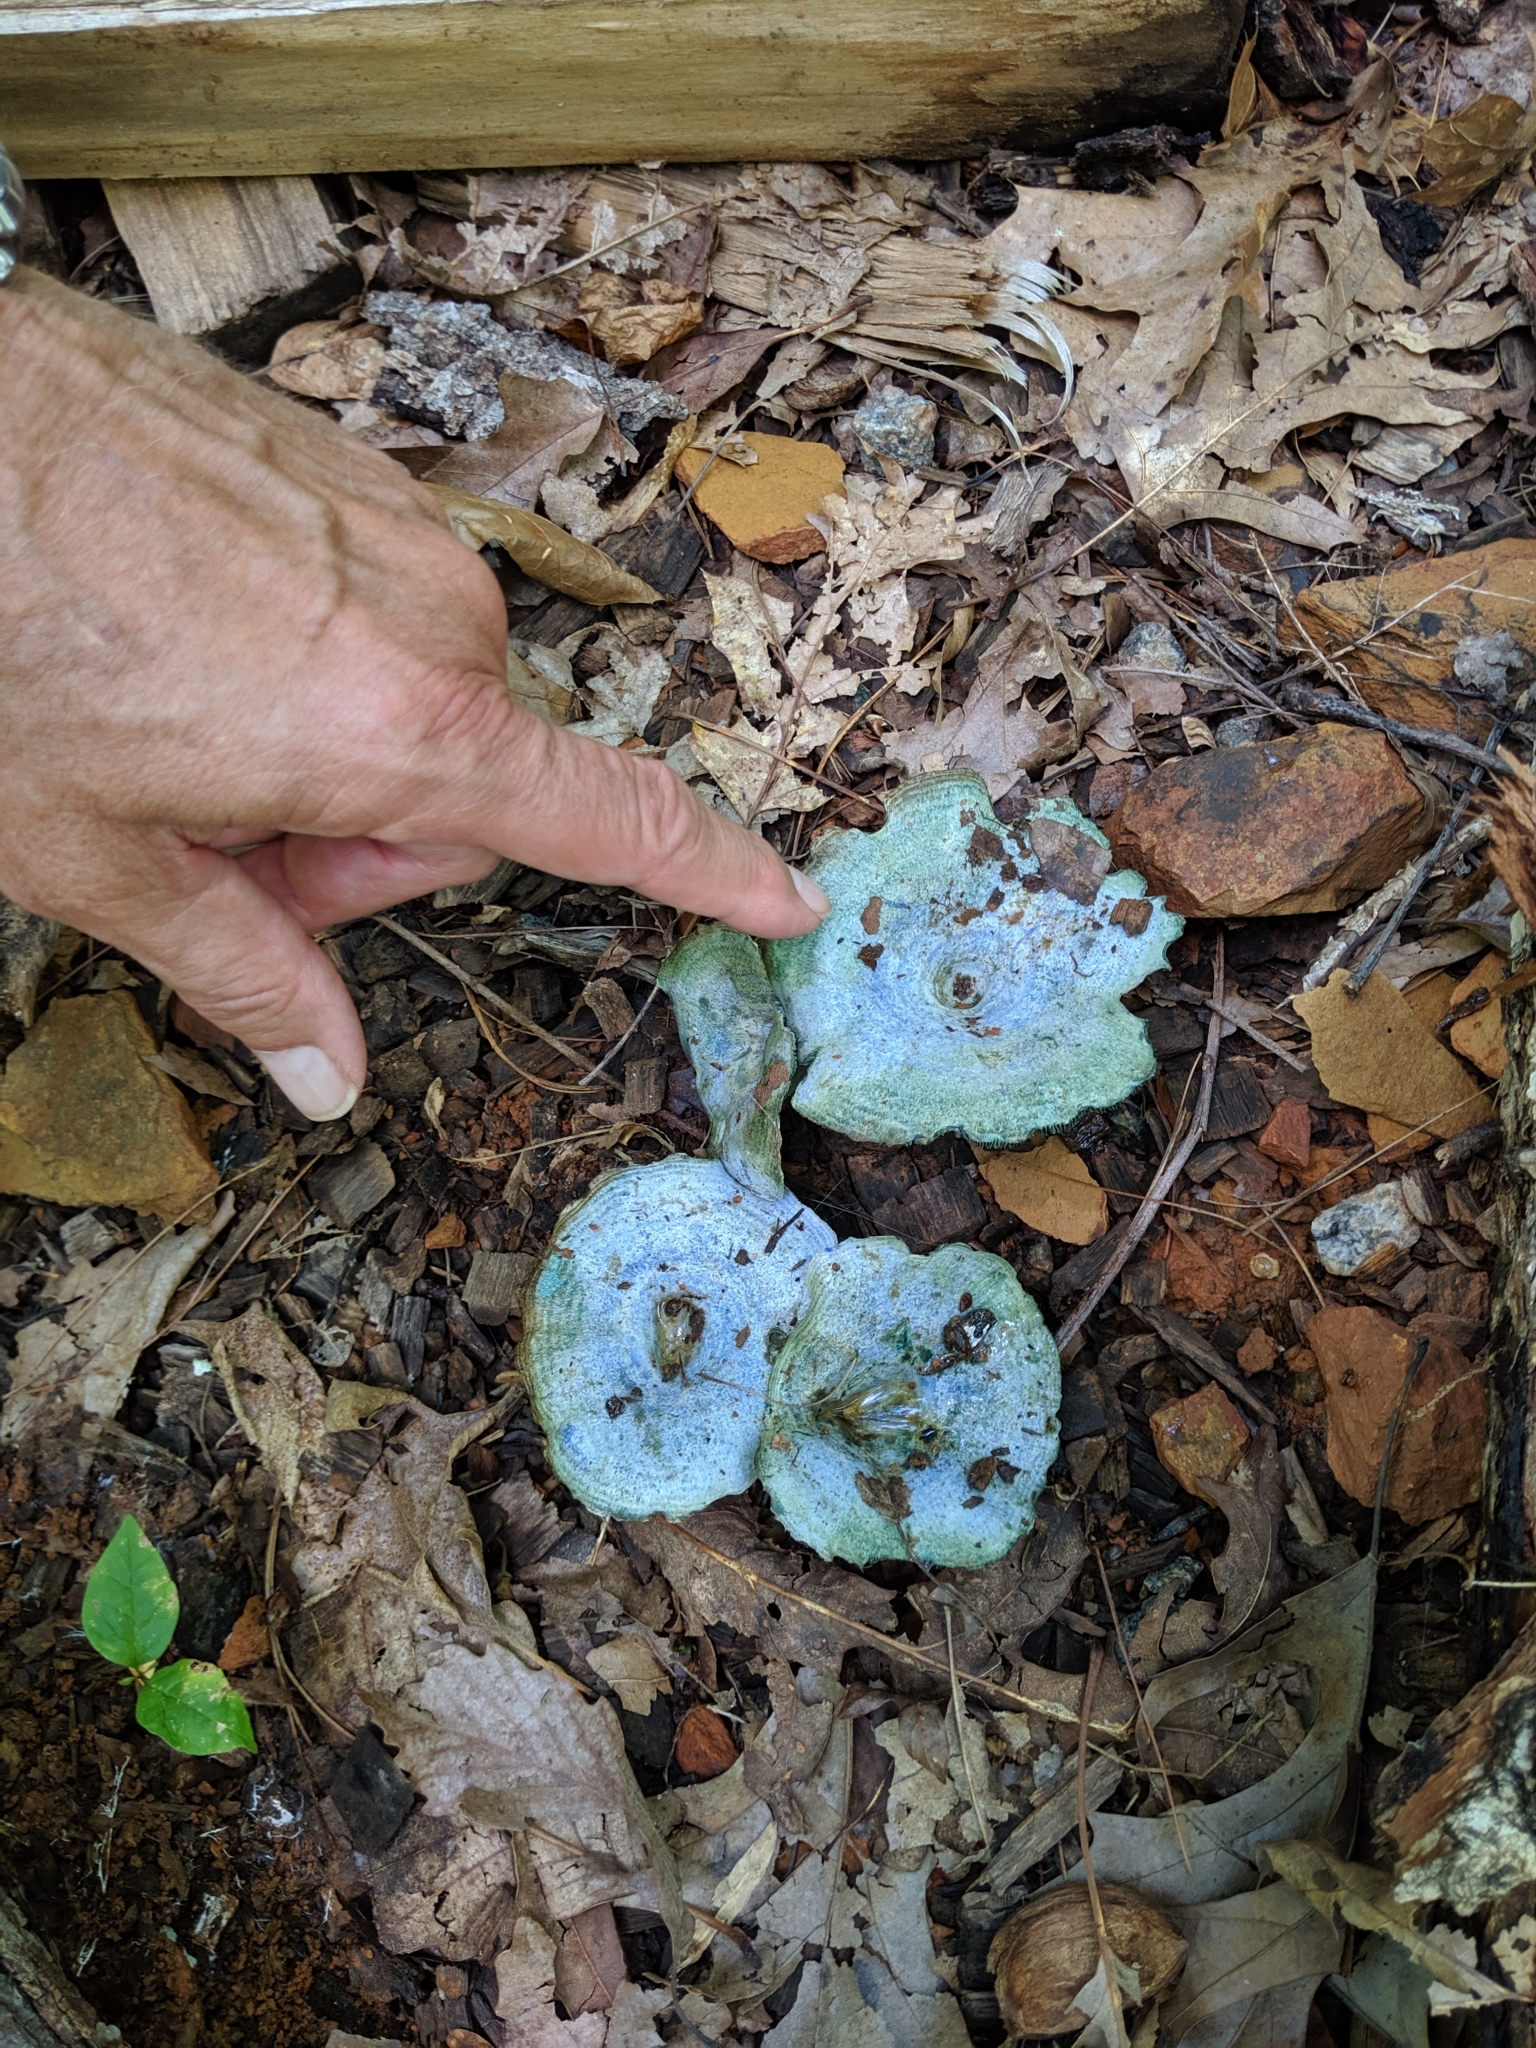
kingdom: Fungi
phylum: Basidiomycota
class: Agaricomycetes
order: Russulales
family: Russulaceae
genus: Lactarius
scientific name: Lactarius indigo
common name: Indigo milk cap
